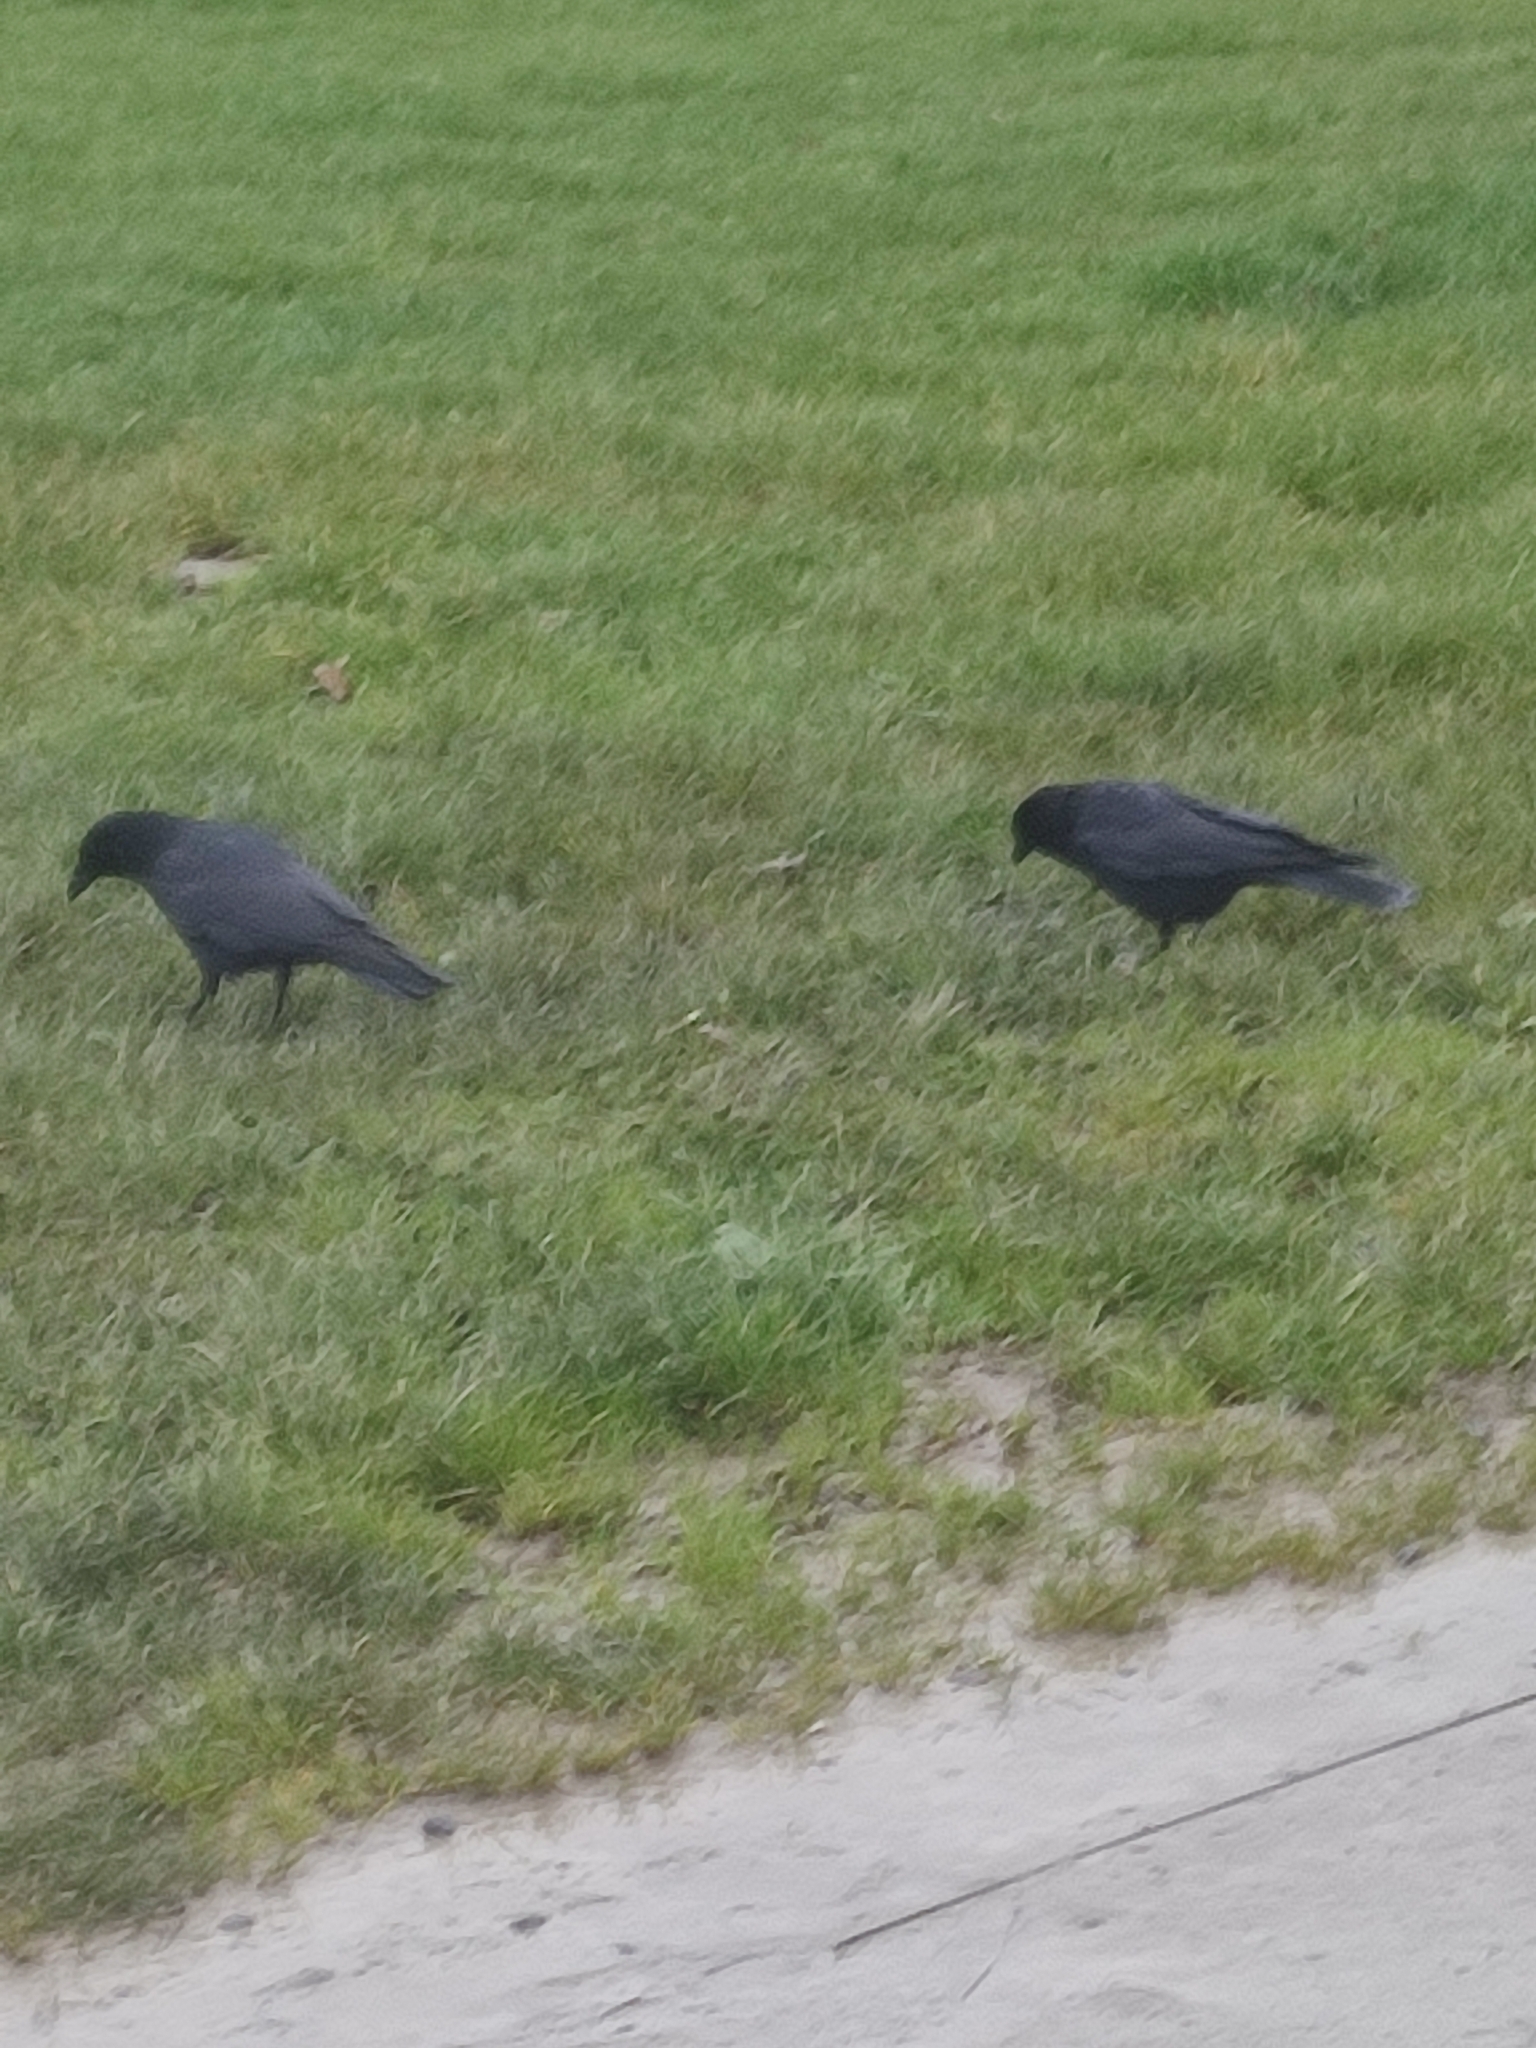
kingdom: Animalia
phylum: Chordata
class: Aves
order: Passeriformes
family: Corvidae
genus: Corvus
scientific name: Corvus corone
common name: Carrion crow
